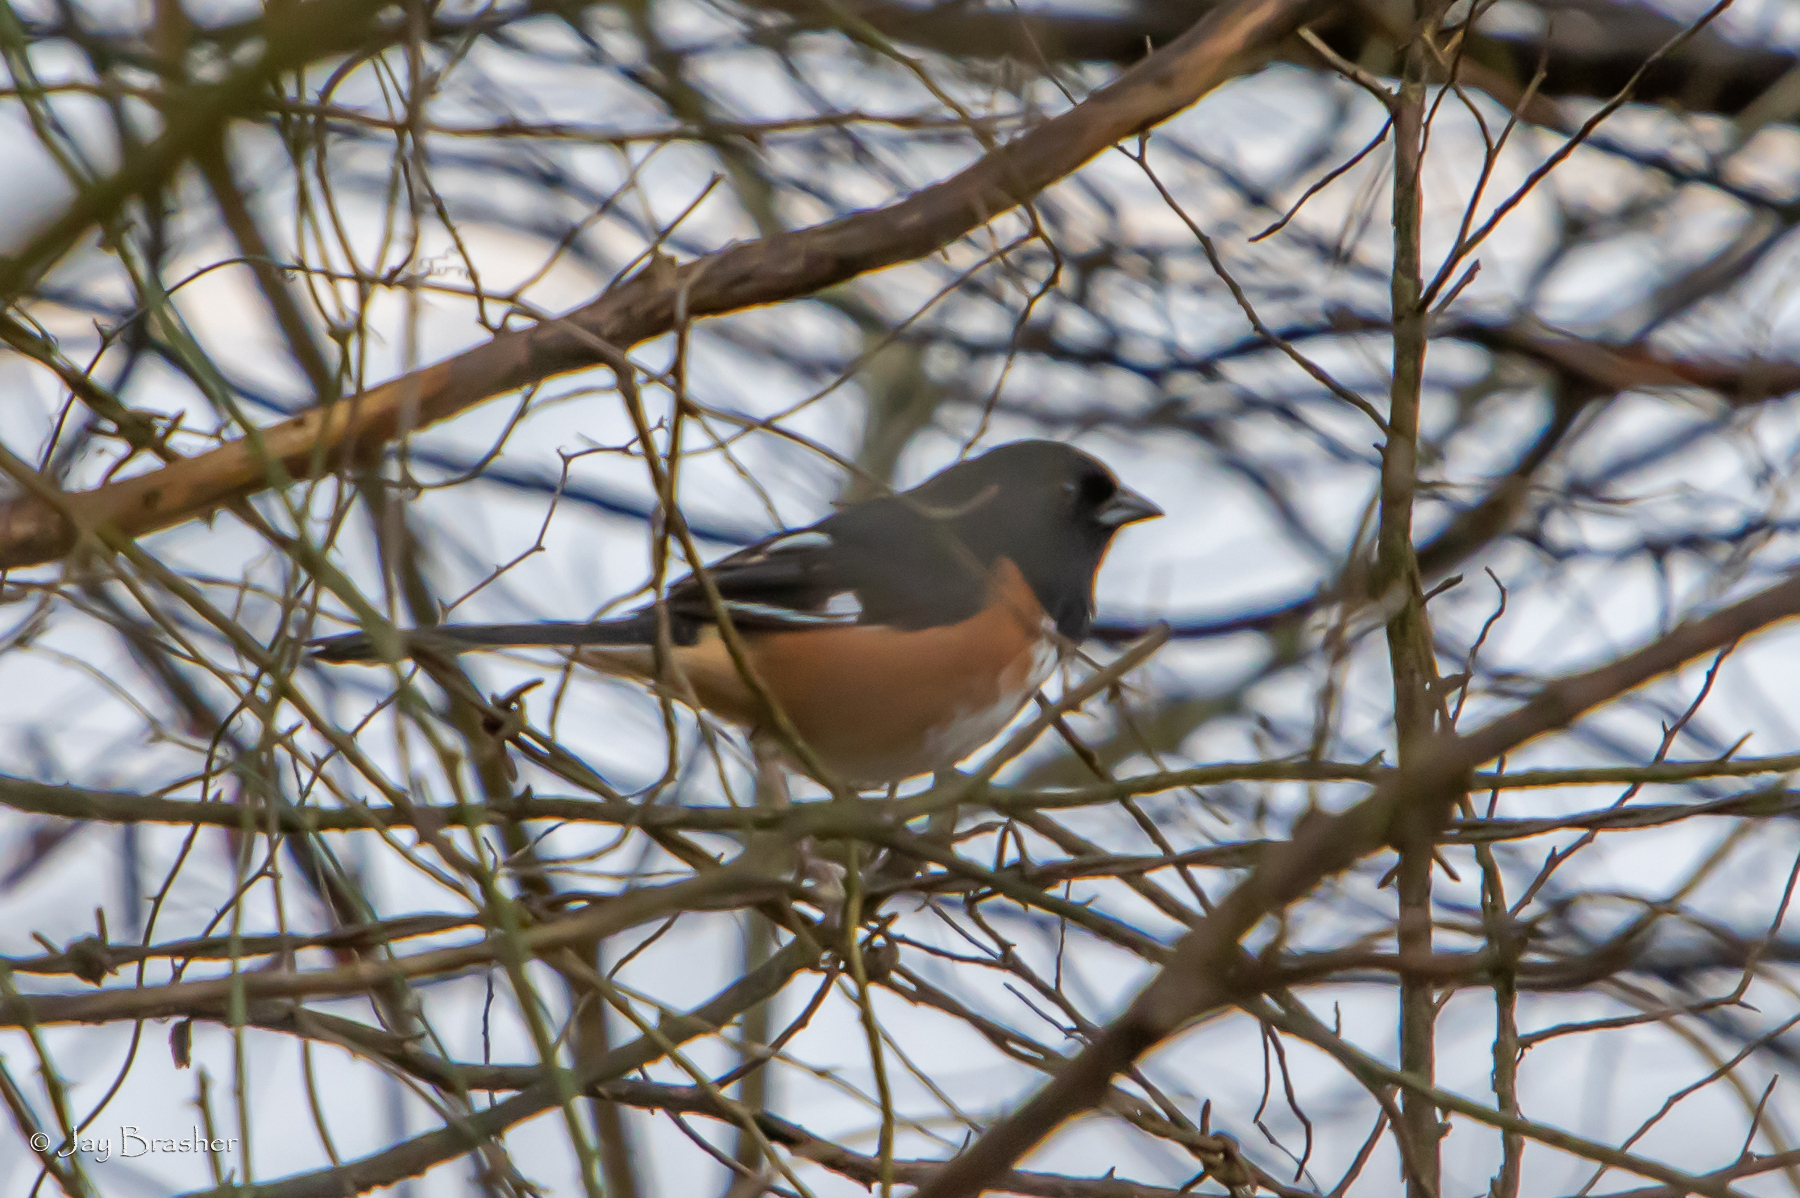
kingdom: Animalia
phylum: Chordata
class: Aves
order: Passeriformes
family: Passerellidae
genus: Pipilo
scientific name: Pipilo erythrophthalmus
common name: Eastern towhee
